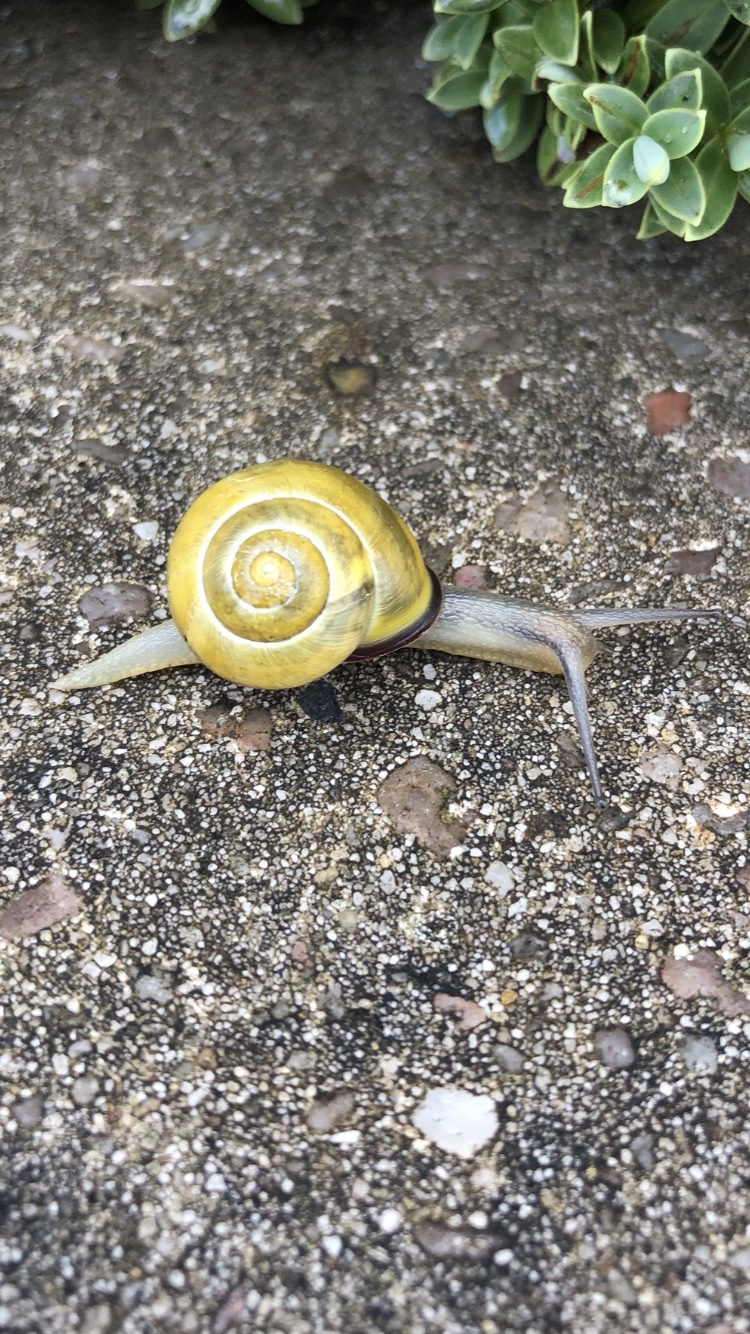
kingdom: Animalia
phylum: Mollusca
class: Gastropoda
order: Stylommatophora
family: Helicidae
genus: Cepaea
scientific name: Cepaea nemoralis
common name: Grovesnail
